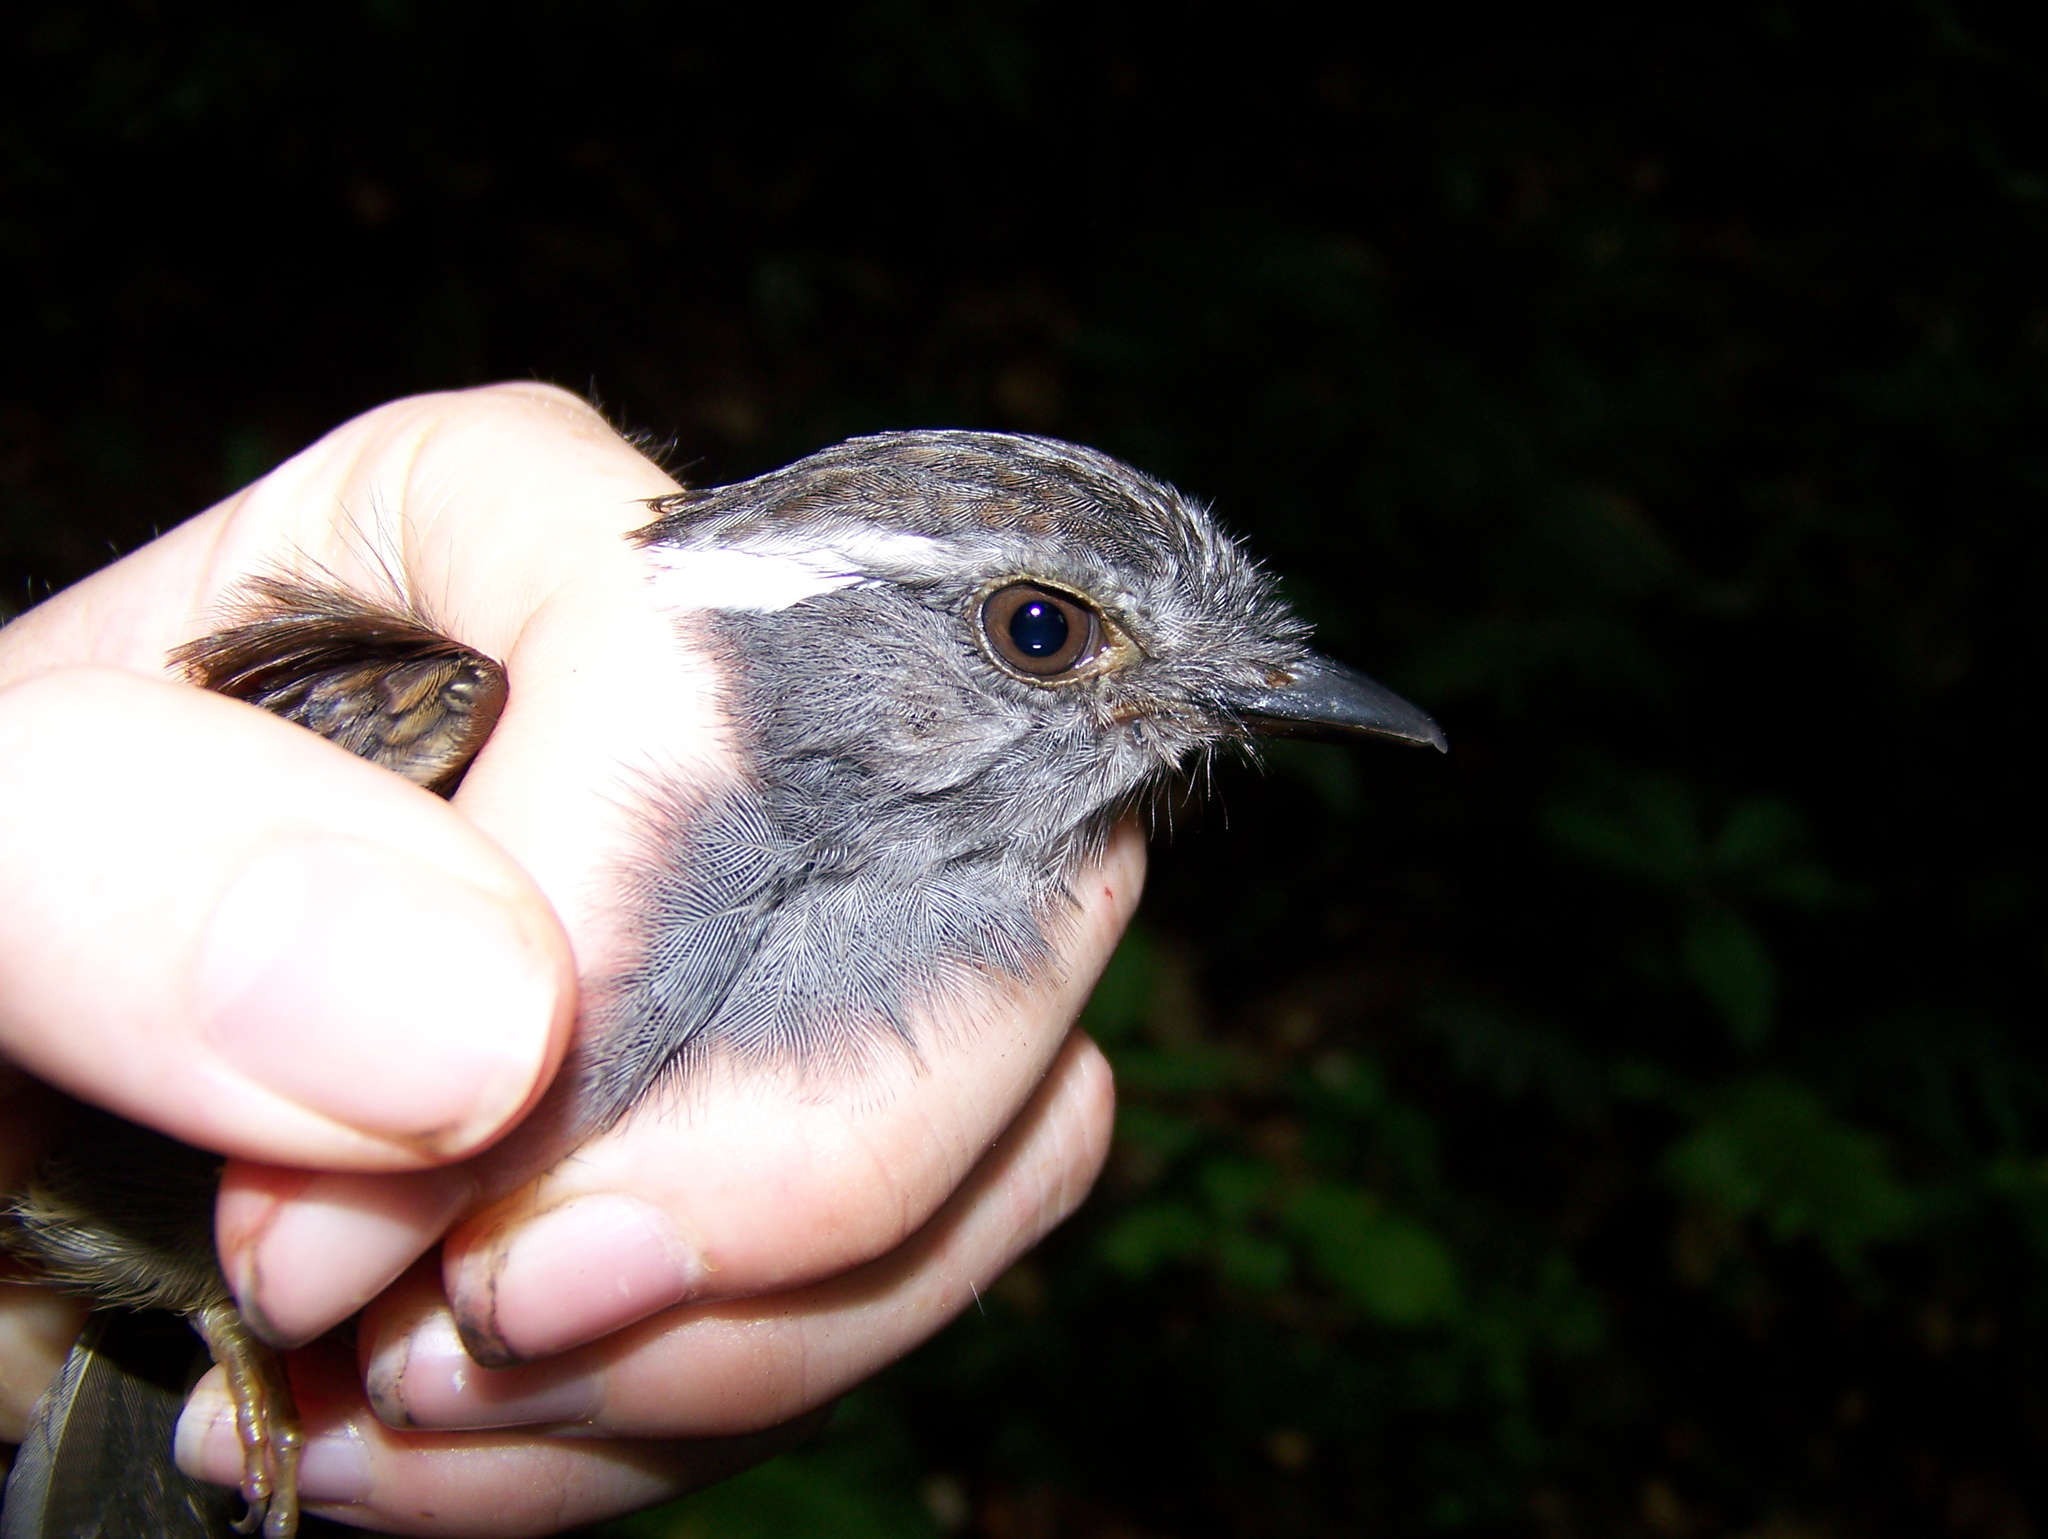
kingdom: Animalia
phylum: Chordata
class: Aves
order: Passeriformes
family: Conopophagidae
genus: Conopophaga
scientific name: Conopophaga peruviana
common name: Ash-throated gnateater
